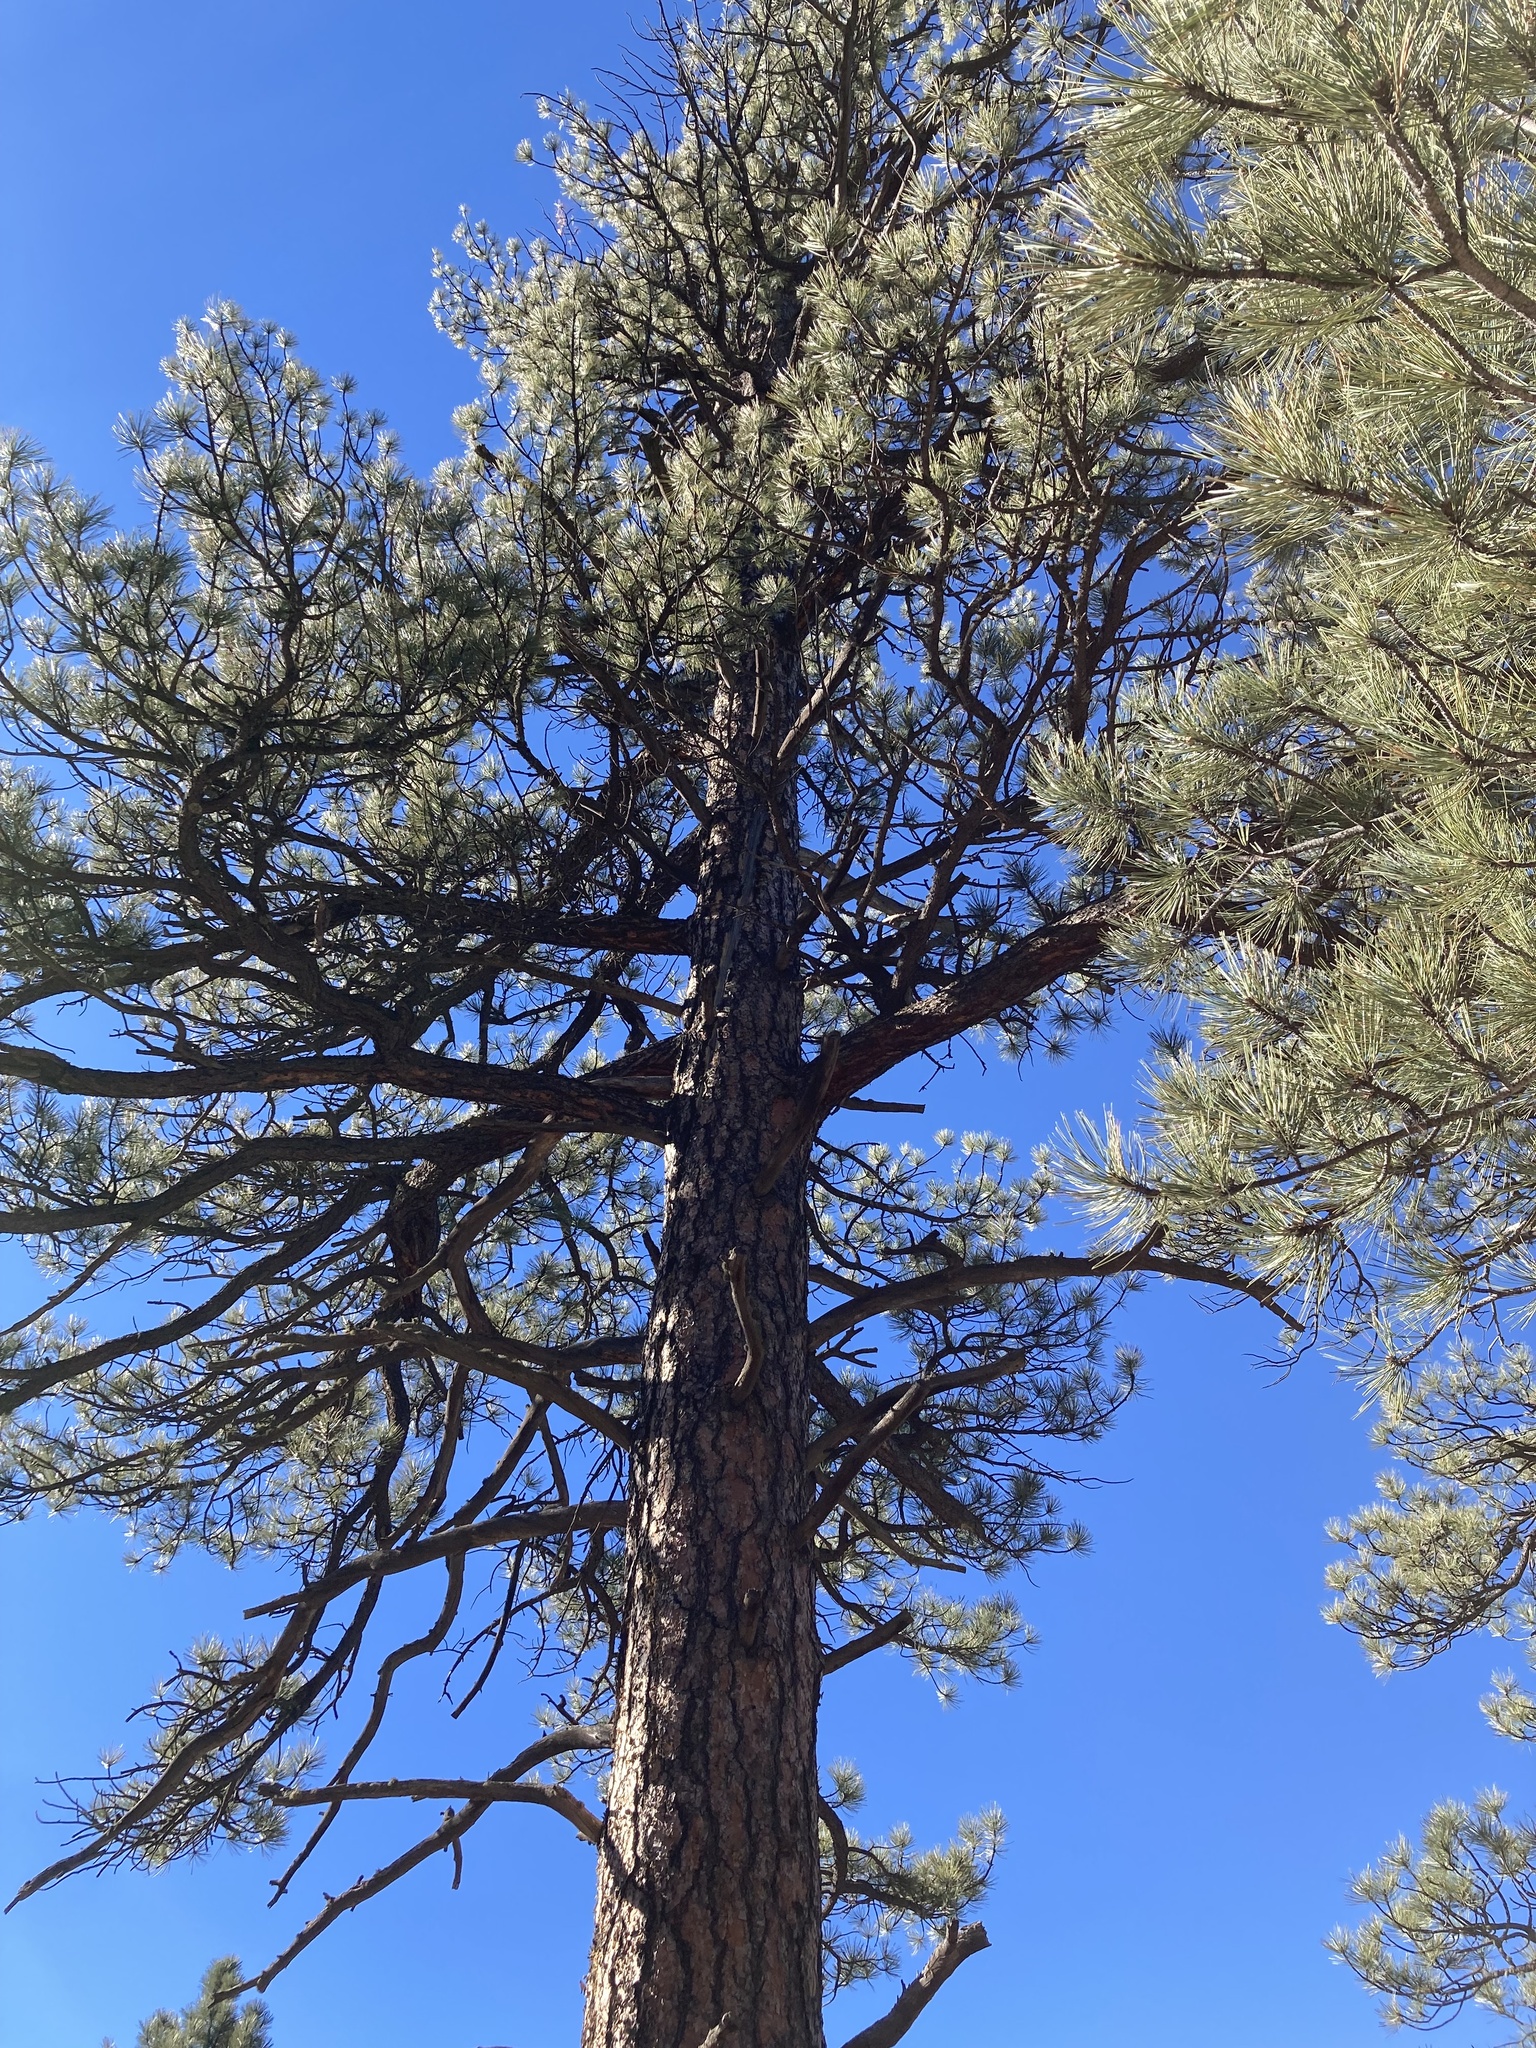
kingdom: Plantae
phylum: Tracheophyta
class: Pinopsida
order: Pinales
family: Pinaceae
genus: Pinus
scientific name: Pinus ponderosa
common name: Western yellow-pine
